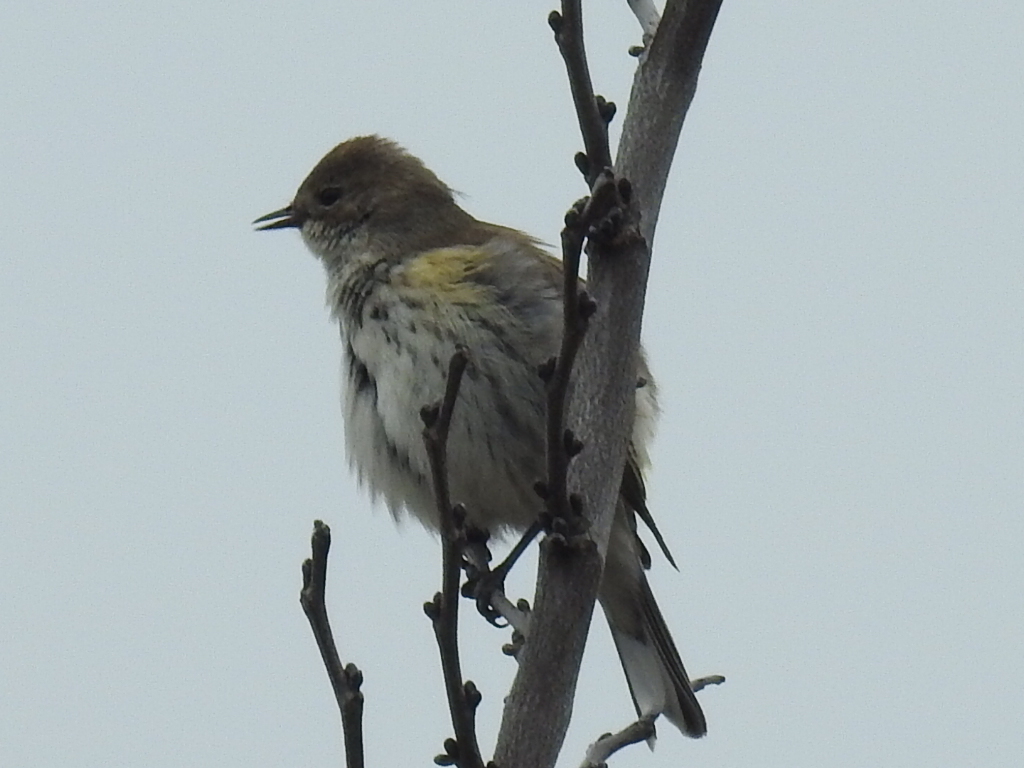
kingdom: Animalia
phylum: Chordata
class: Aves
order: Passeriformes
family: Parulidae
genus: Setophaga
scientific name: Setophaga coronata
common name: Myrtle warbler
